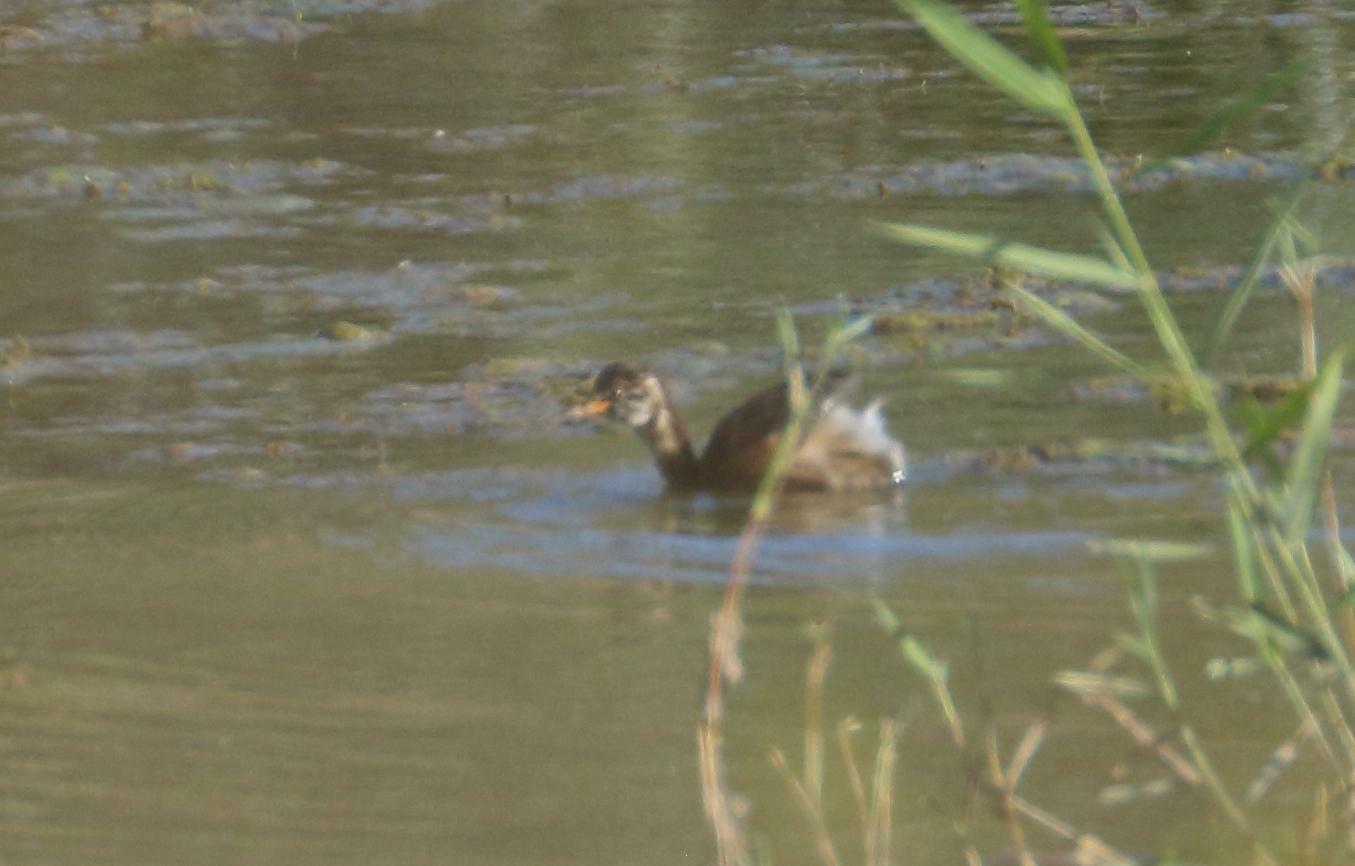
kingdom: Animalia
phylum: Chordata
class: Aves
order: Podicipediformes
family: Podicipedidae
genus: Tachybaptus
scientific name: Tachybaptus ruficollis
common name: Little grebe
